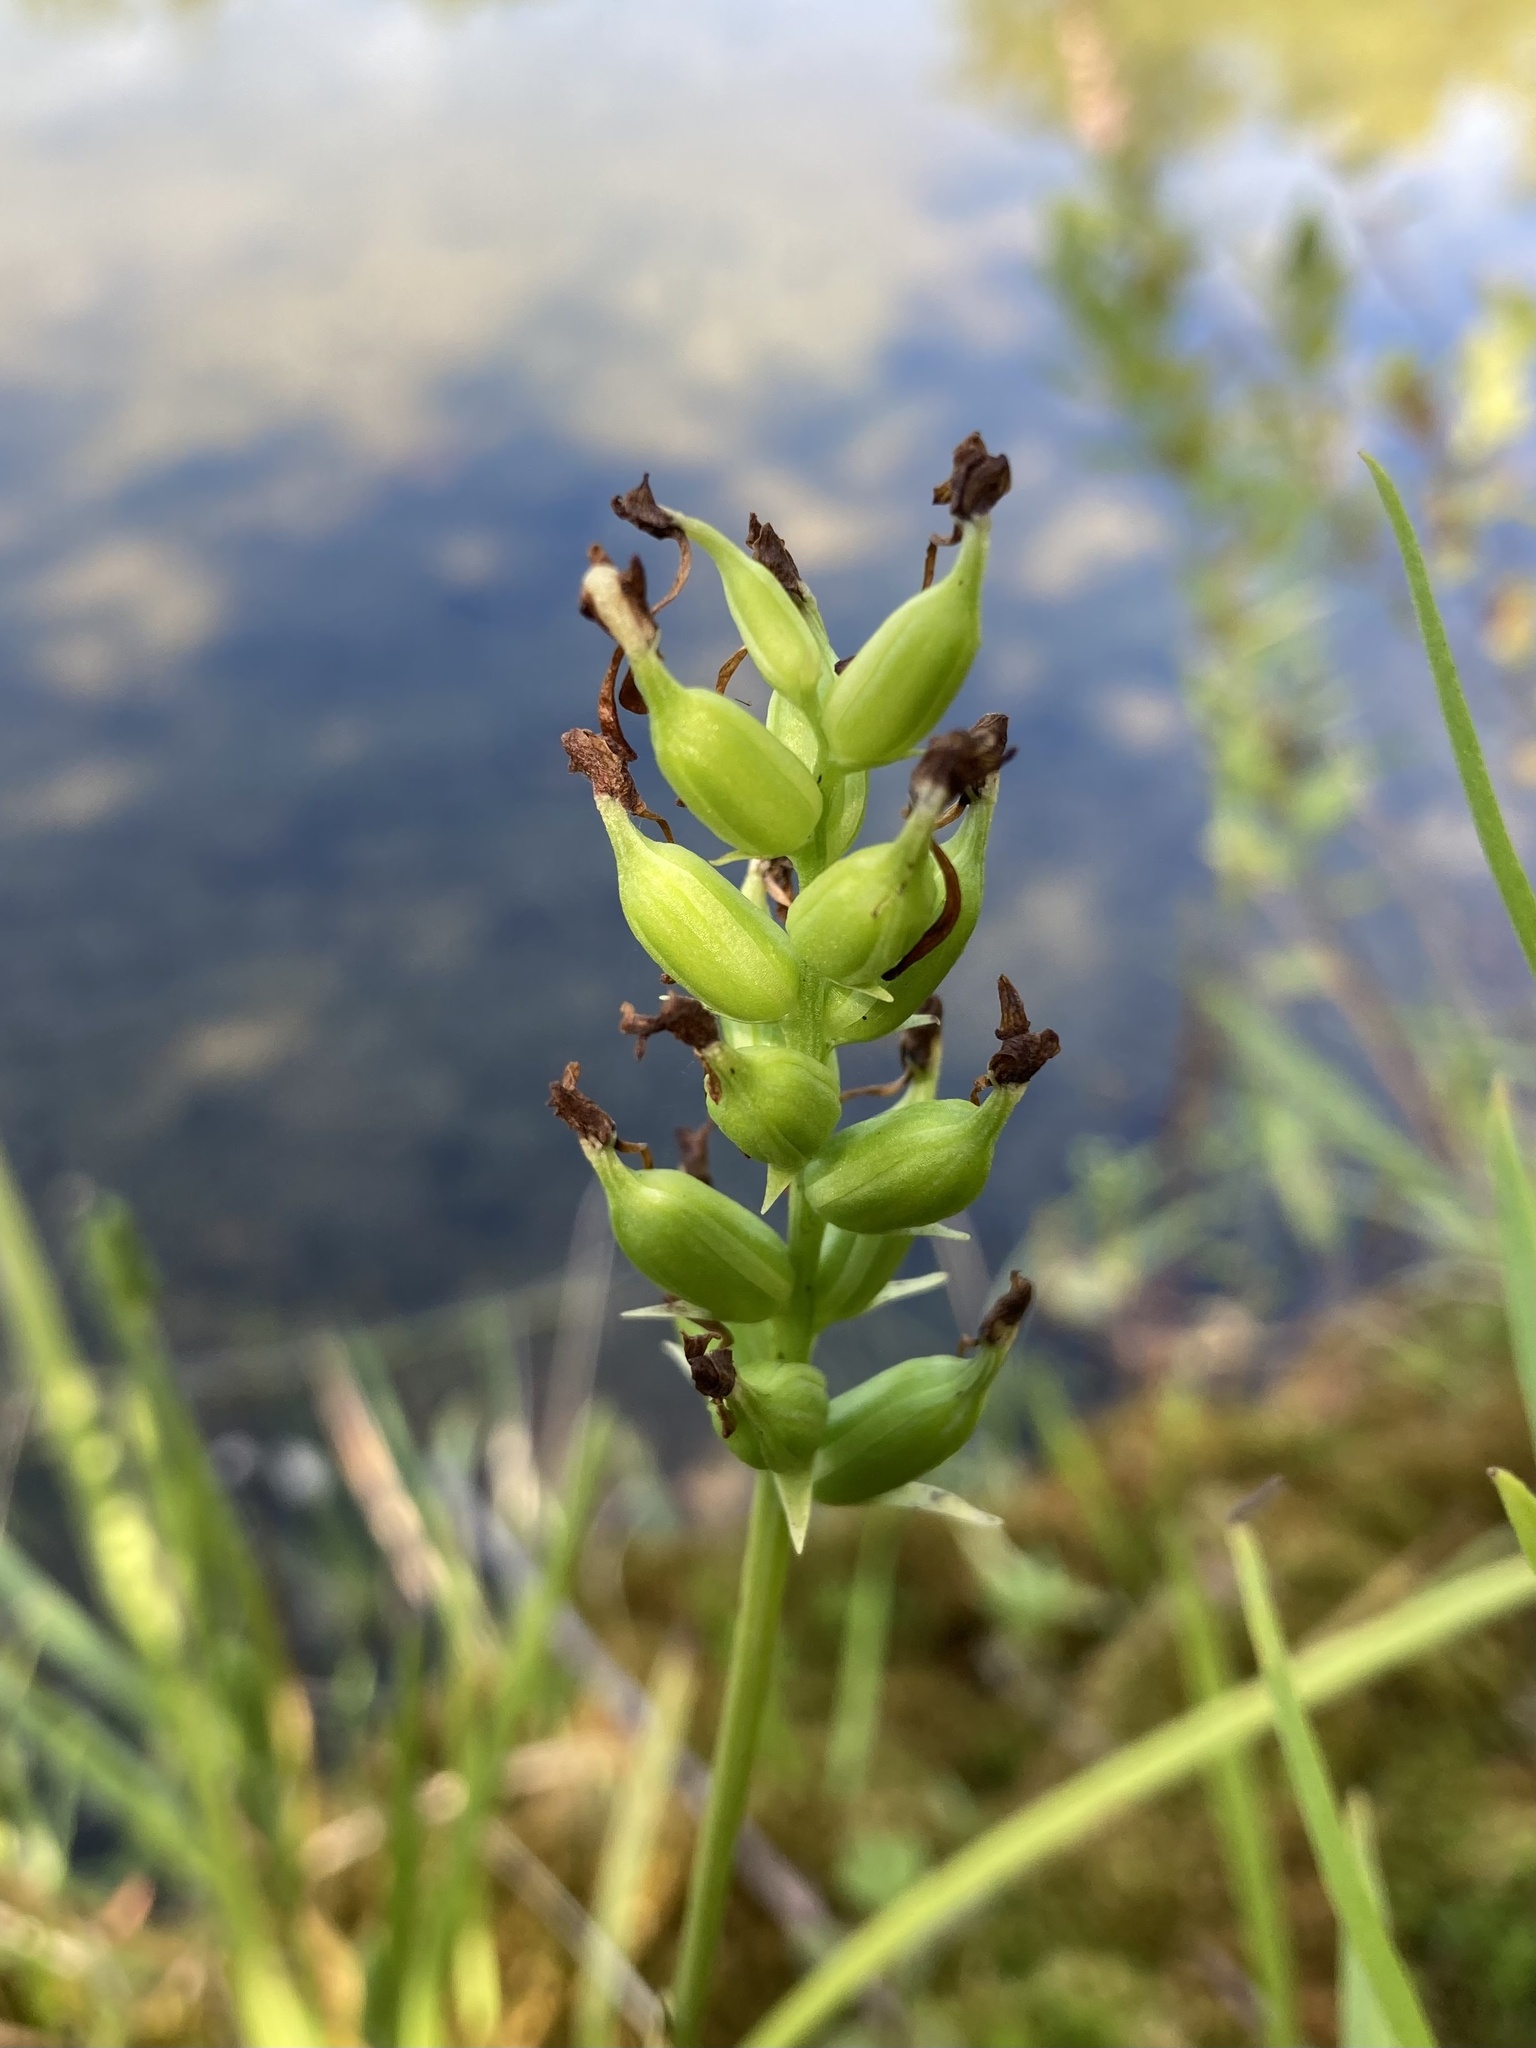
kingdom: Plantae
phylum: Tracheophyta
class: Liliopsida
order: Asparagales
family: Orchidaceae
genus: Platanthera
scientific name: Platanthera clavellata
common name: Club-spur orchid
